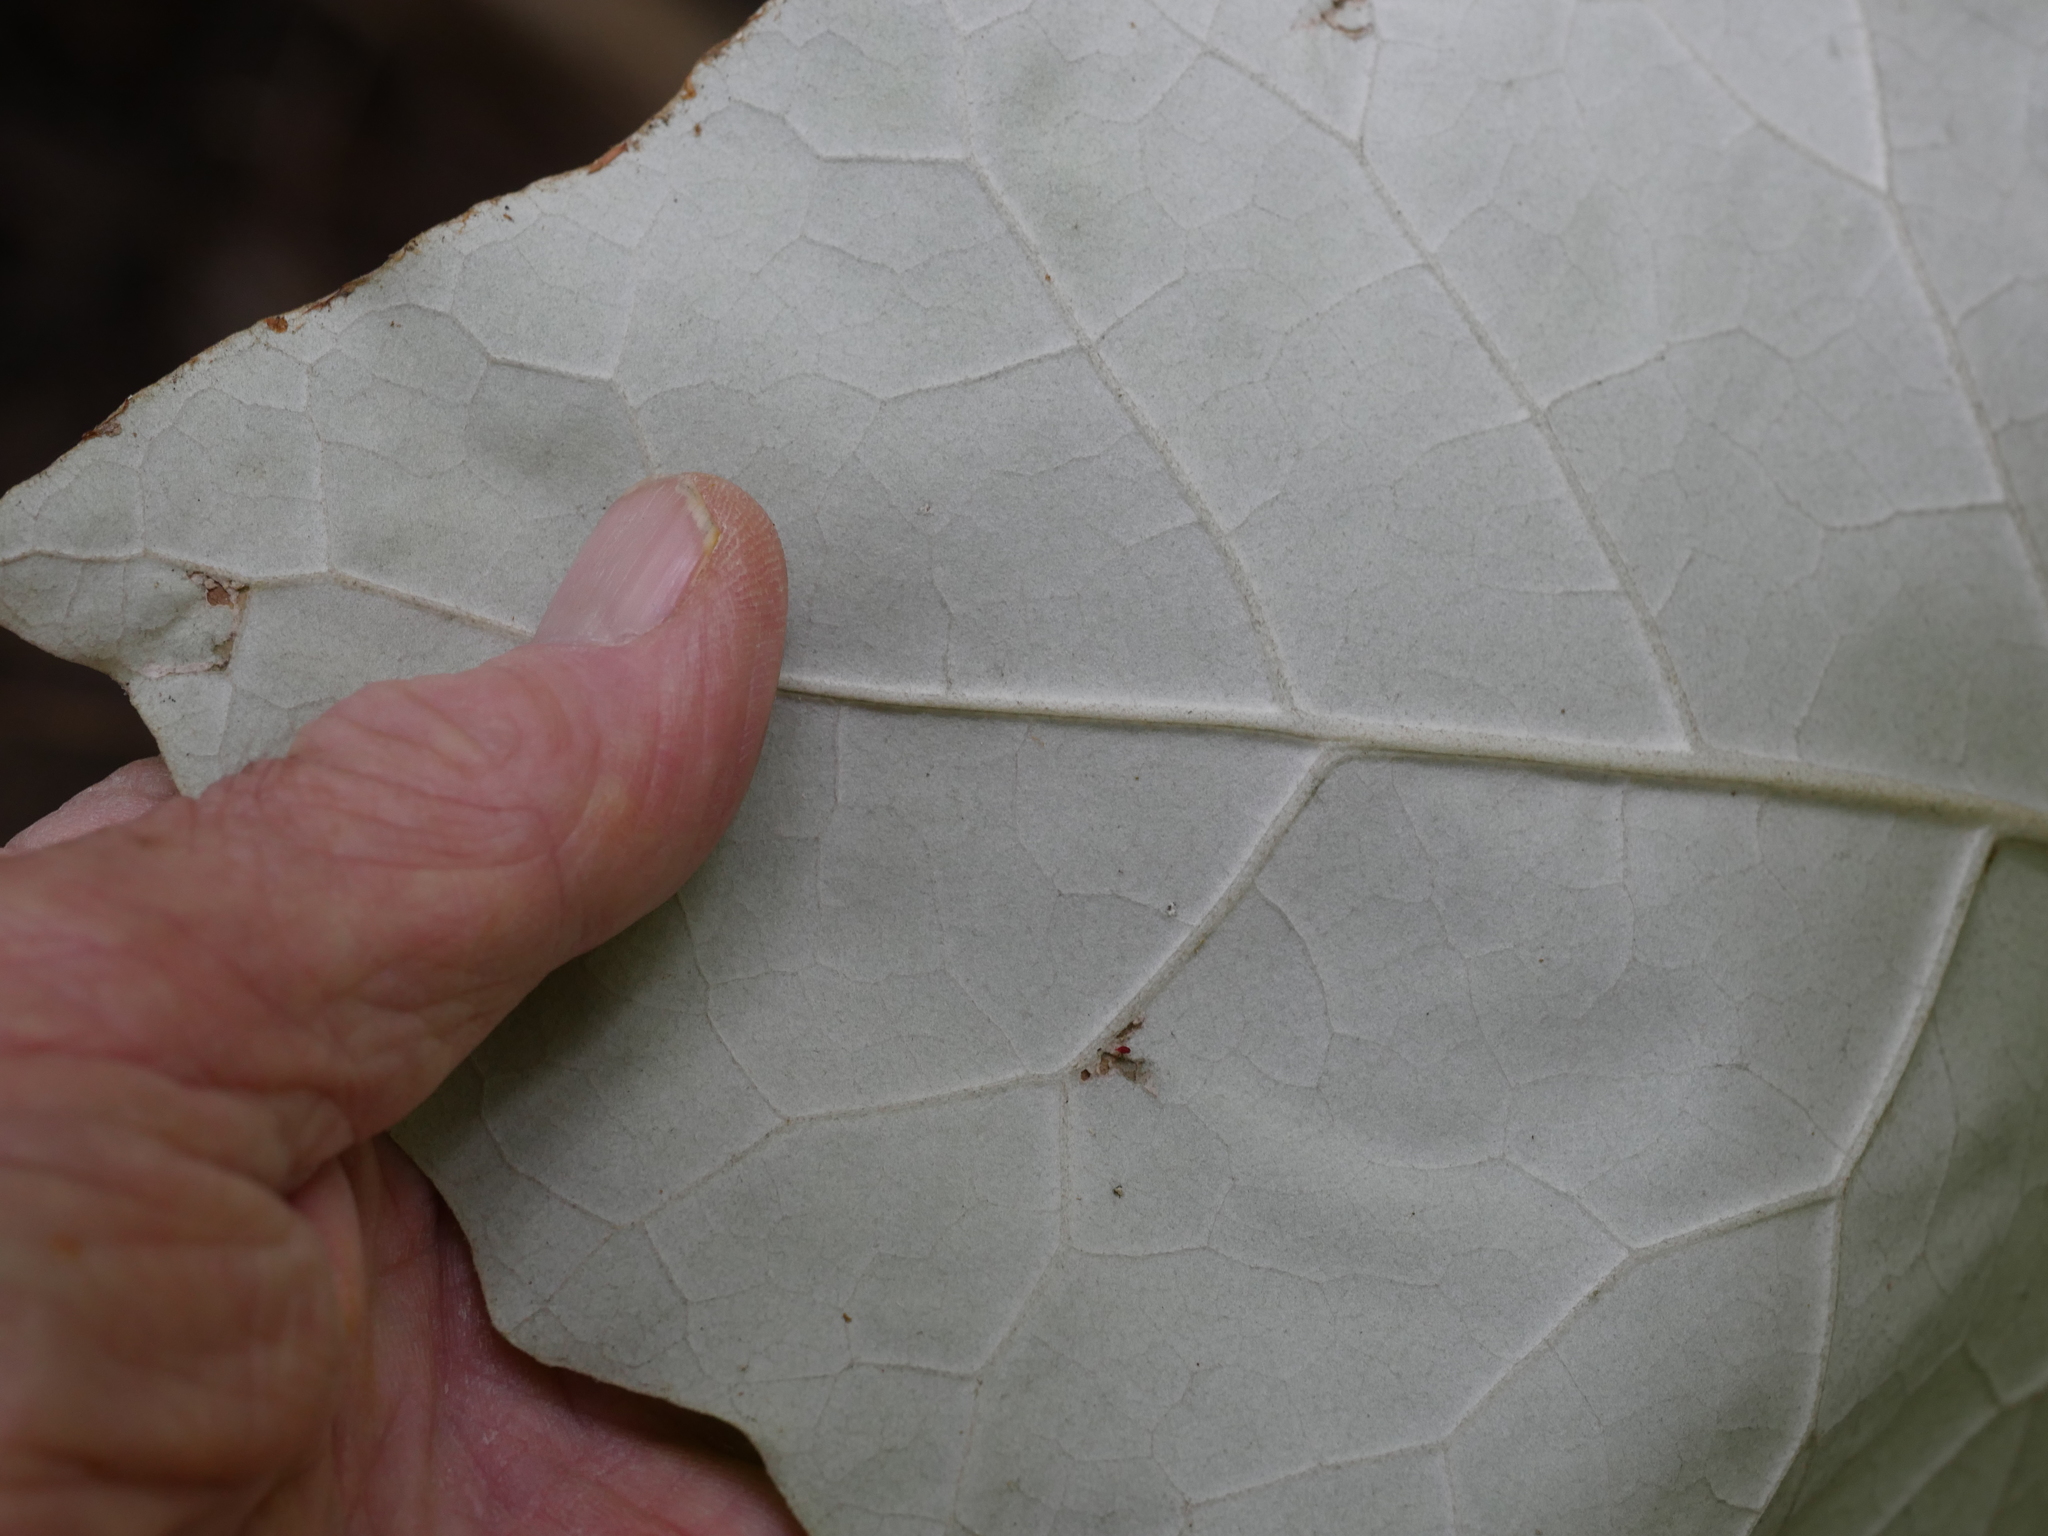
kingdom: Plantae
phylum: Tracheophyta
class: Magnoliopsida
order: Asterales
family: Asteraceae
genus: Brachyglottis
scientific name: Brachyglottis repanda
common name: Hedge ragwort
